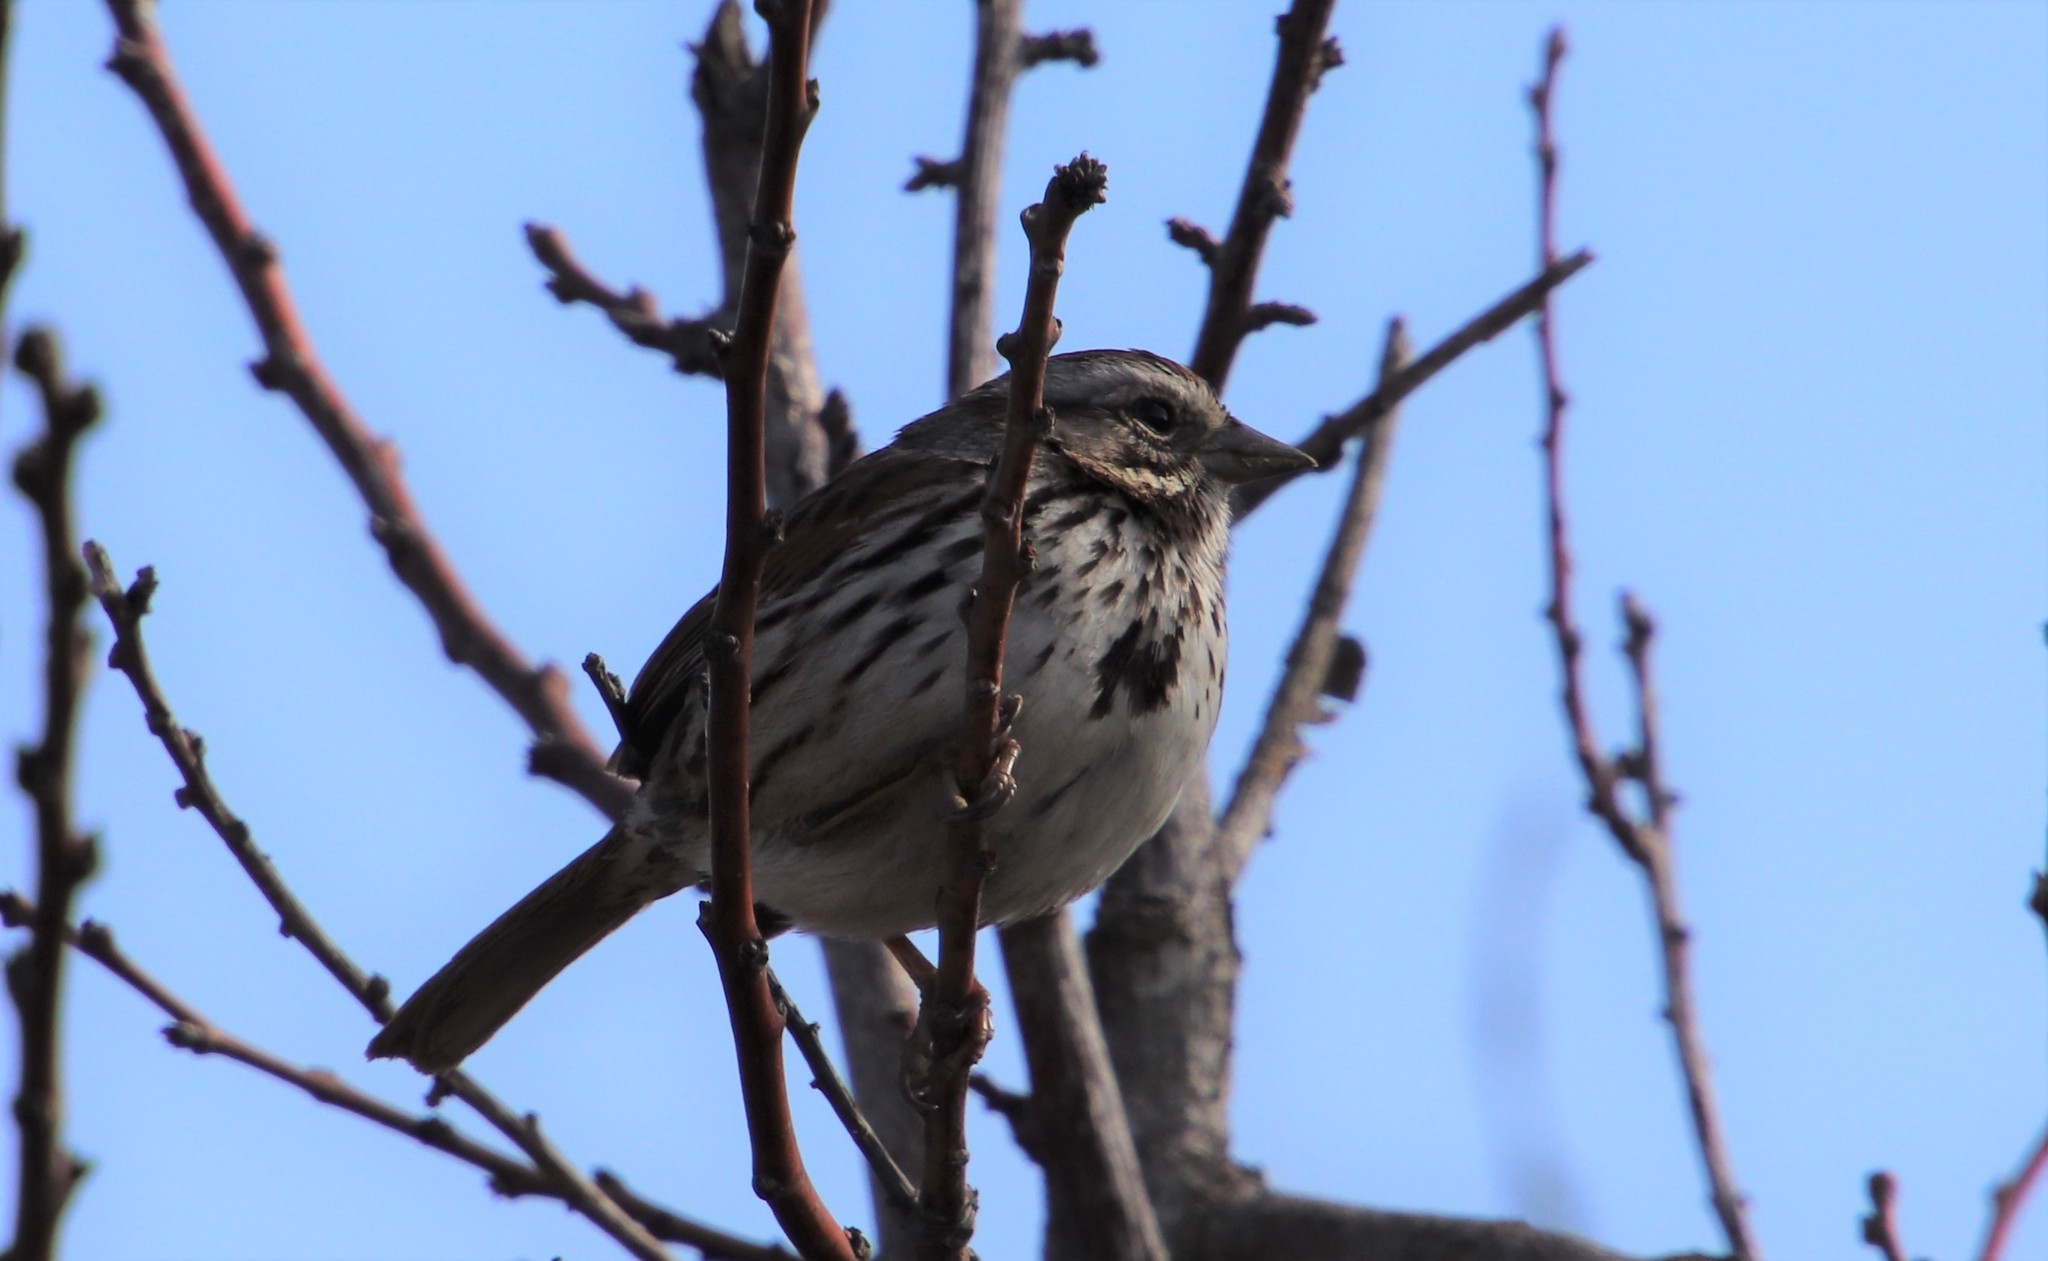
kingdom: Animalia
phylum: Chordata
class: Aves
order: Passeriformes
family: Passerellidae
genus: Melospiza
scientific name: Melospiza melodia
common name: Song sparrow
